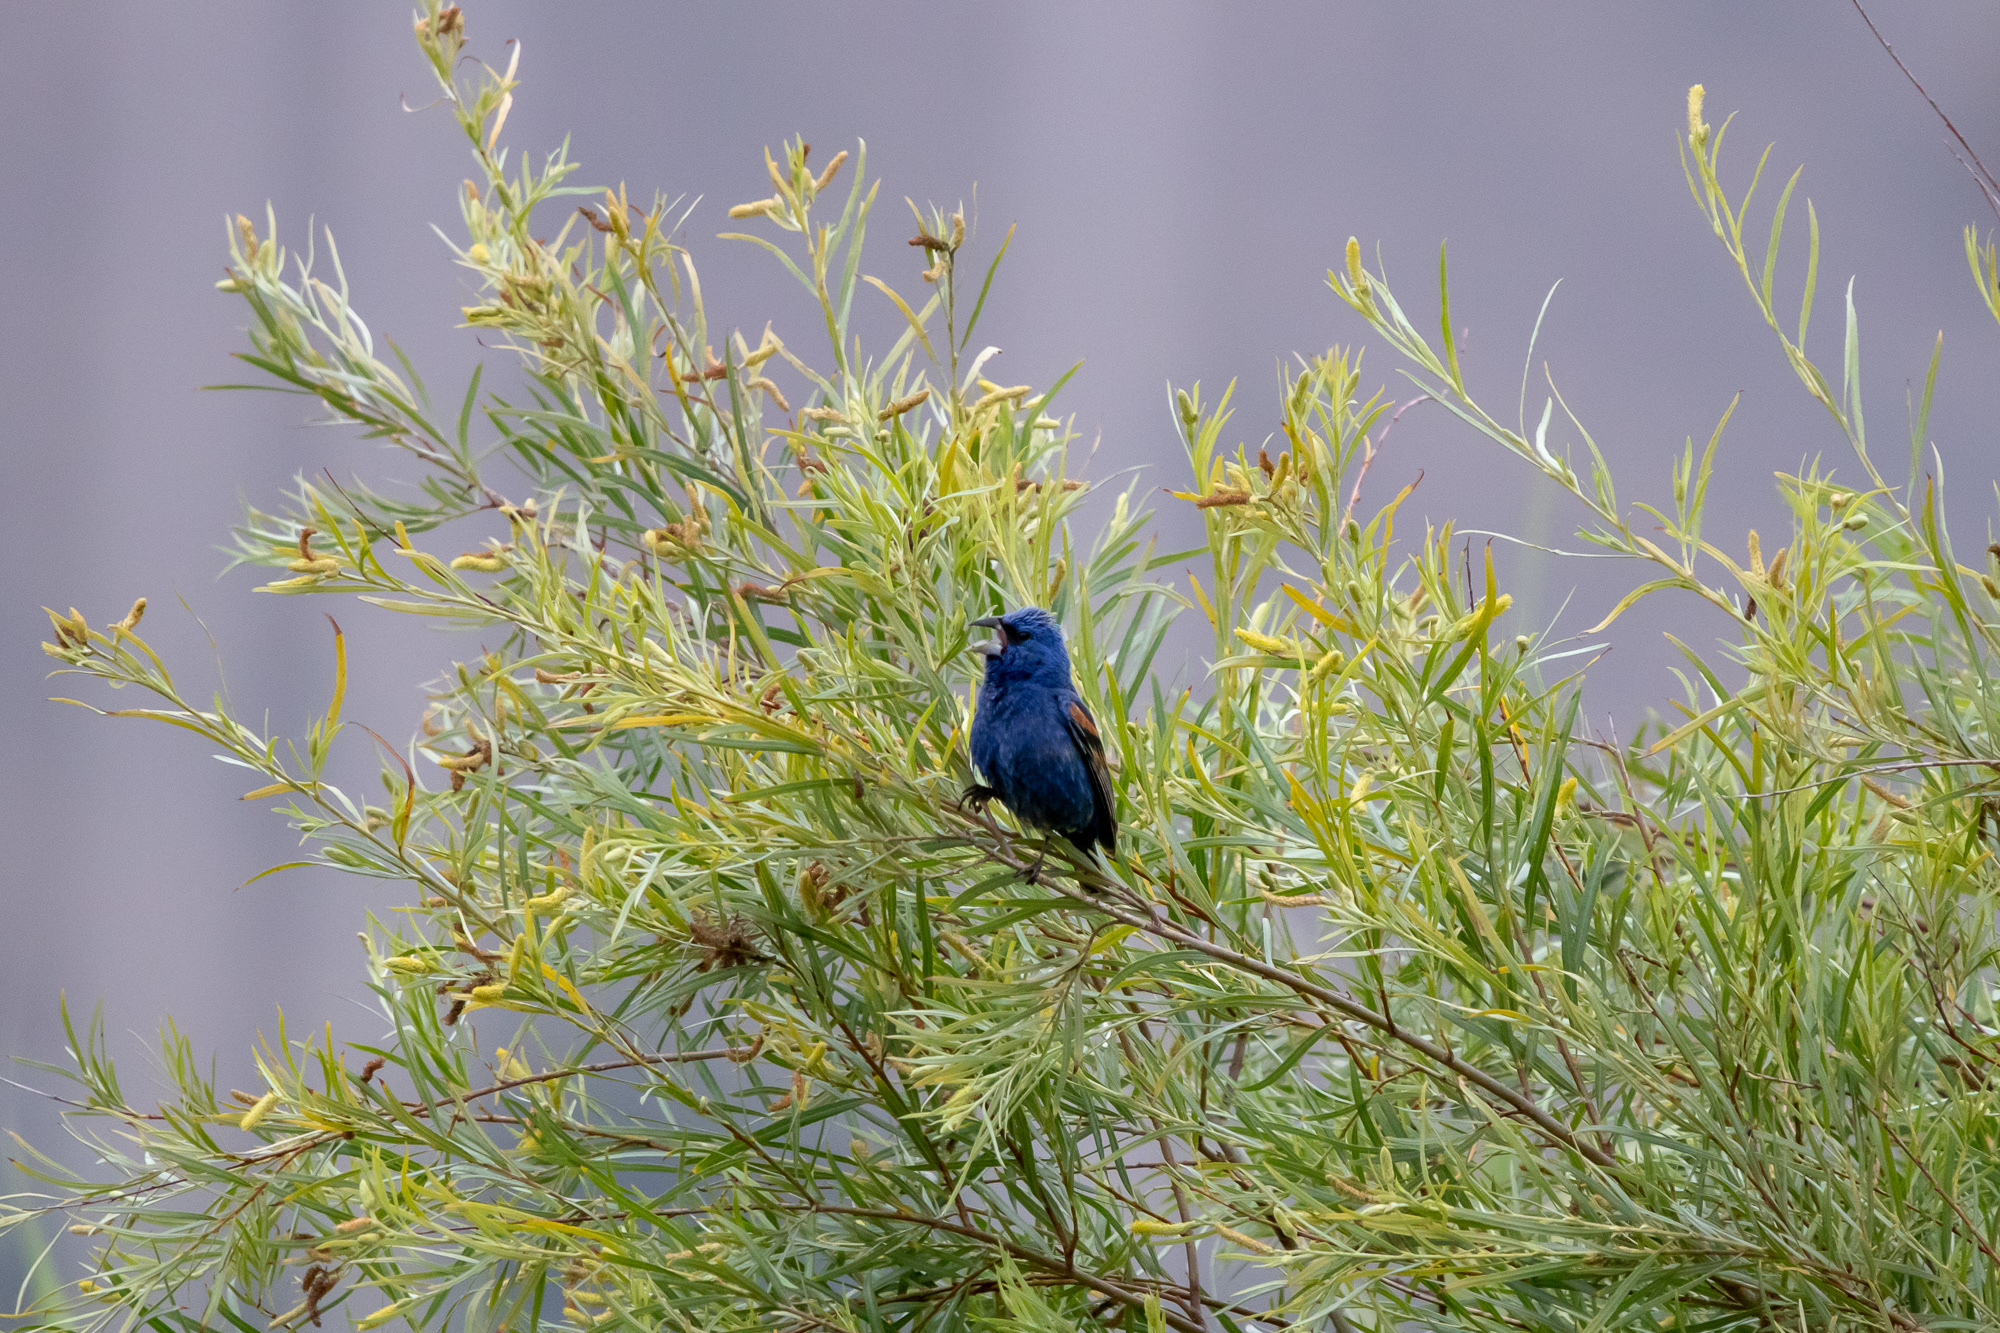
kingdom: Animalia
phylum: Chordata
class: Aves
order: Passeriformes
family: Cardinalidae
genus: Passerina
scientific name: Passerina caerulea
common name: Blue grosbeak
